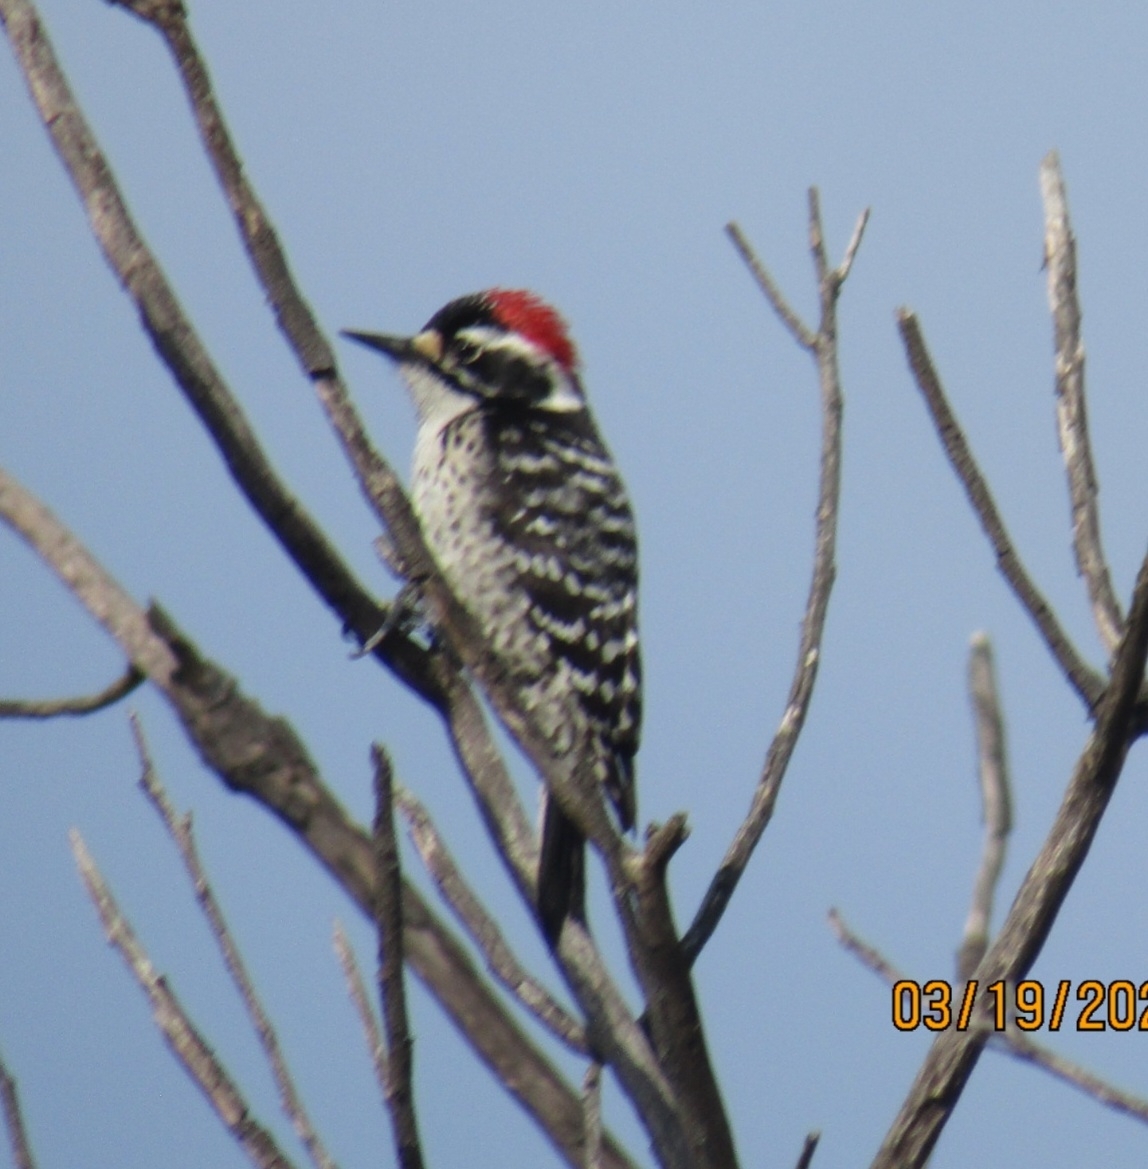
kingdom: Animalia
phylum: Chordata
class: Aves
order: Piciformes
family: Picidae
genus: Dryobates
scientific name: Dryobates nuttallii
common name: Nuttall's woodpecker
